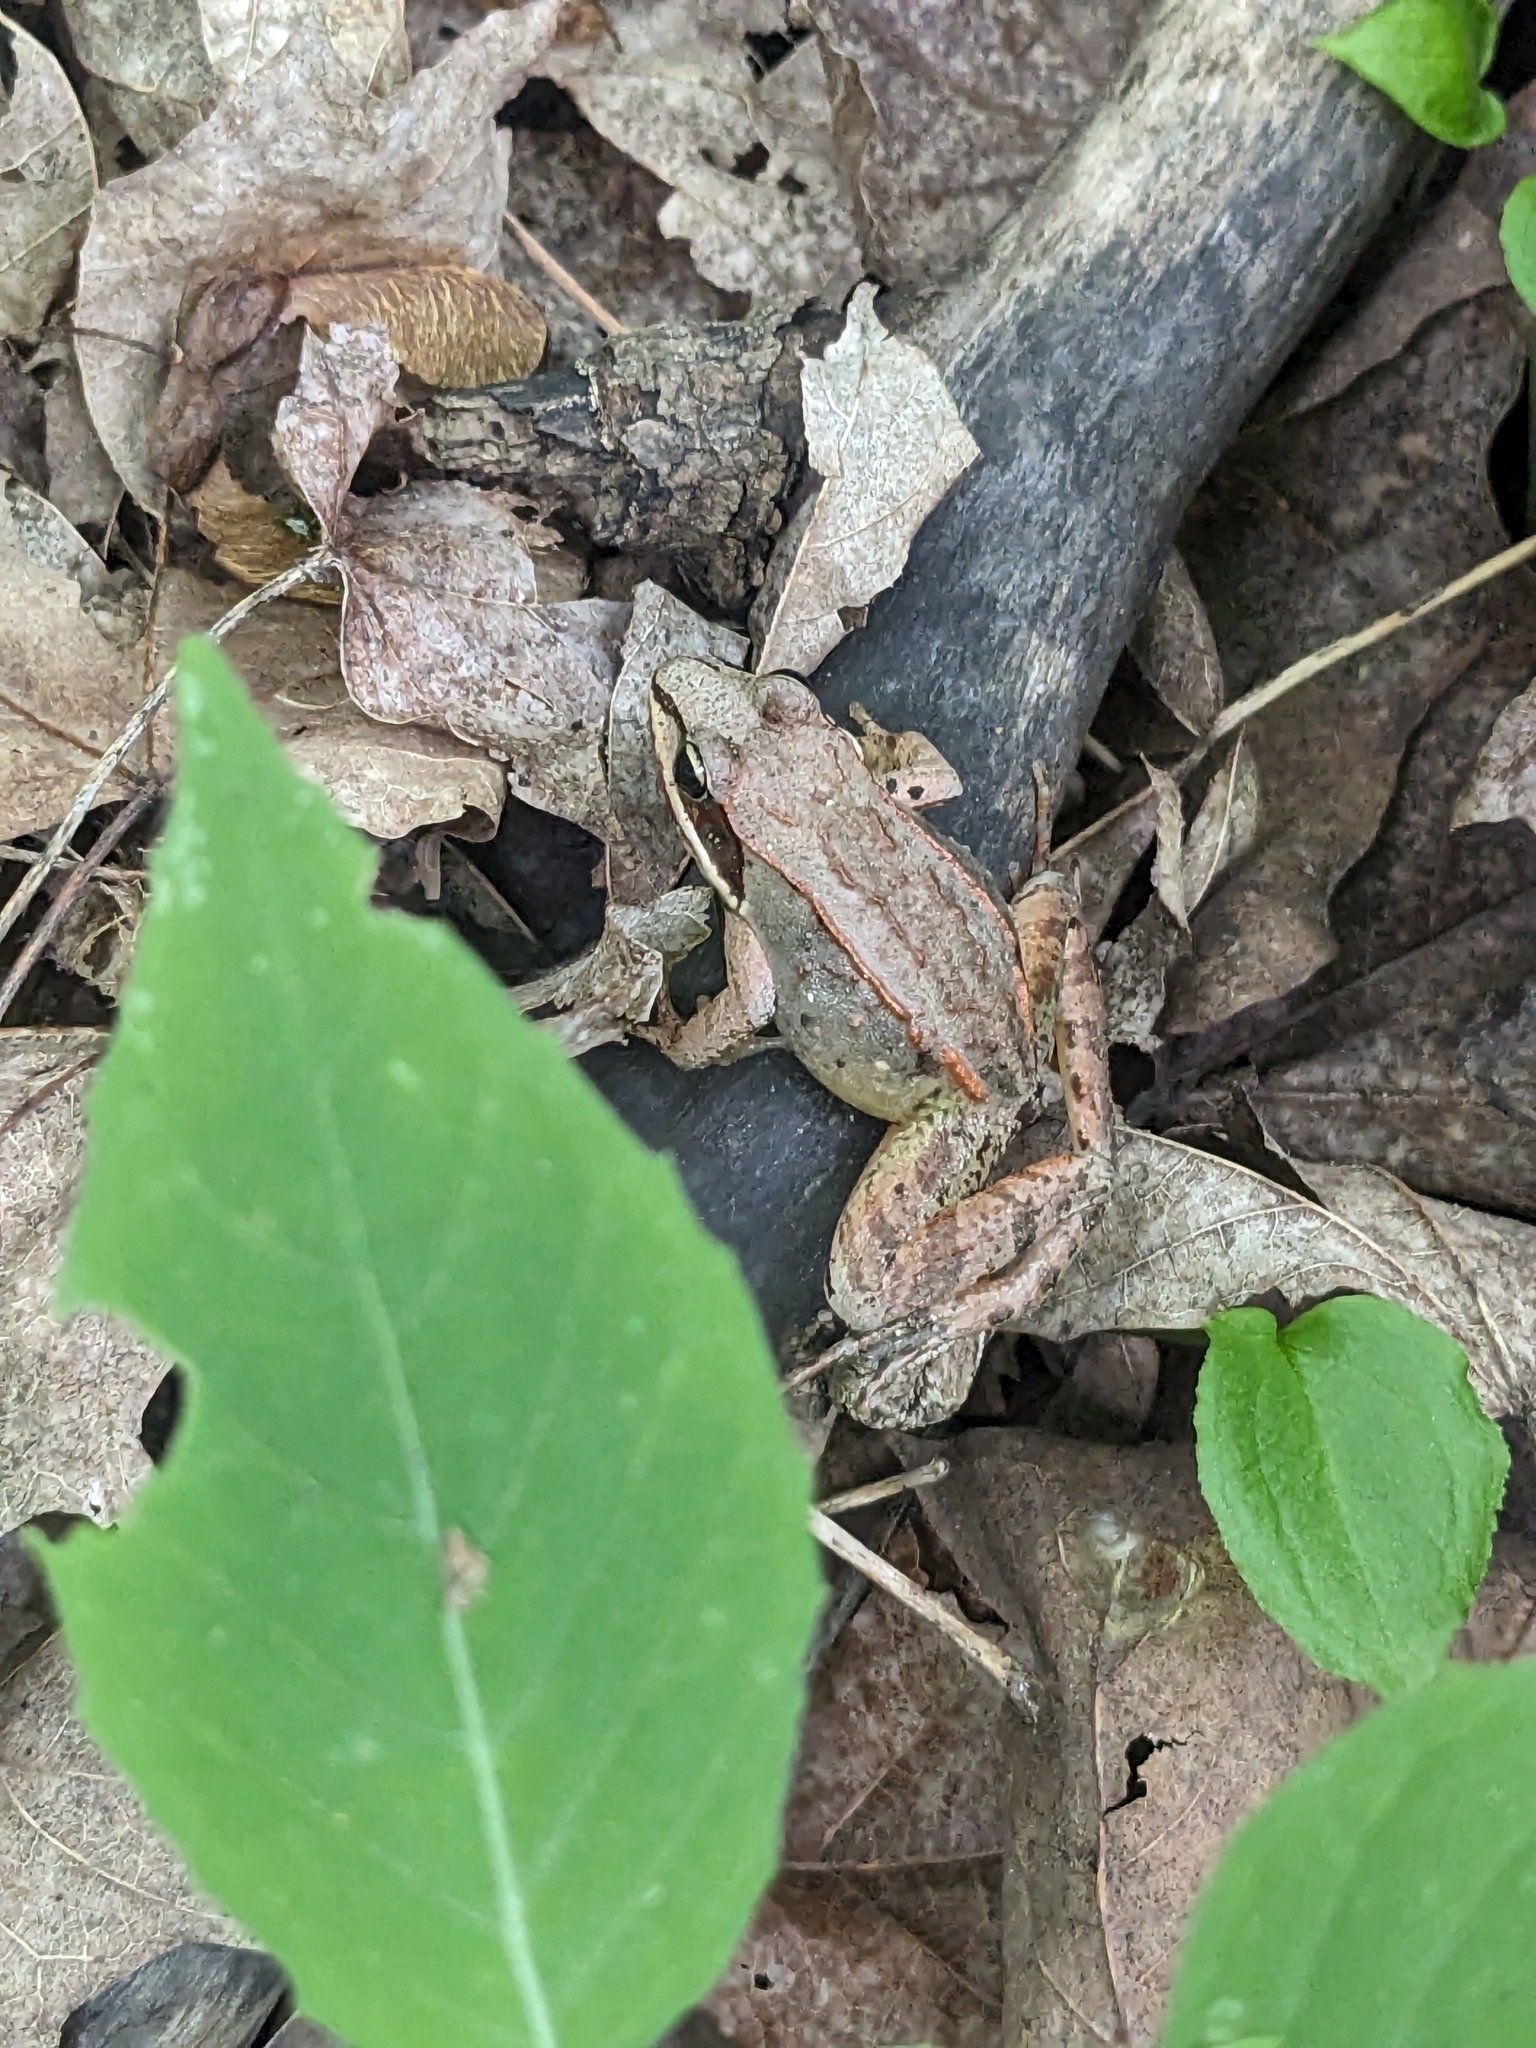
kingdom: Animalia
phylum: Chordata
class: Amphibia
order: Anura
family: Ranidae
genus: Lithobates
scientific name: Lithobates sylvaticus
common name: Wood frog
